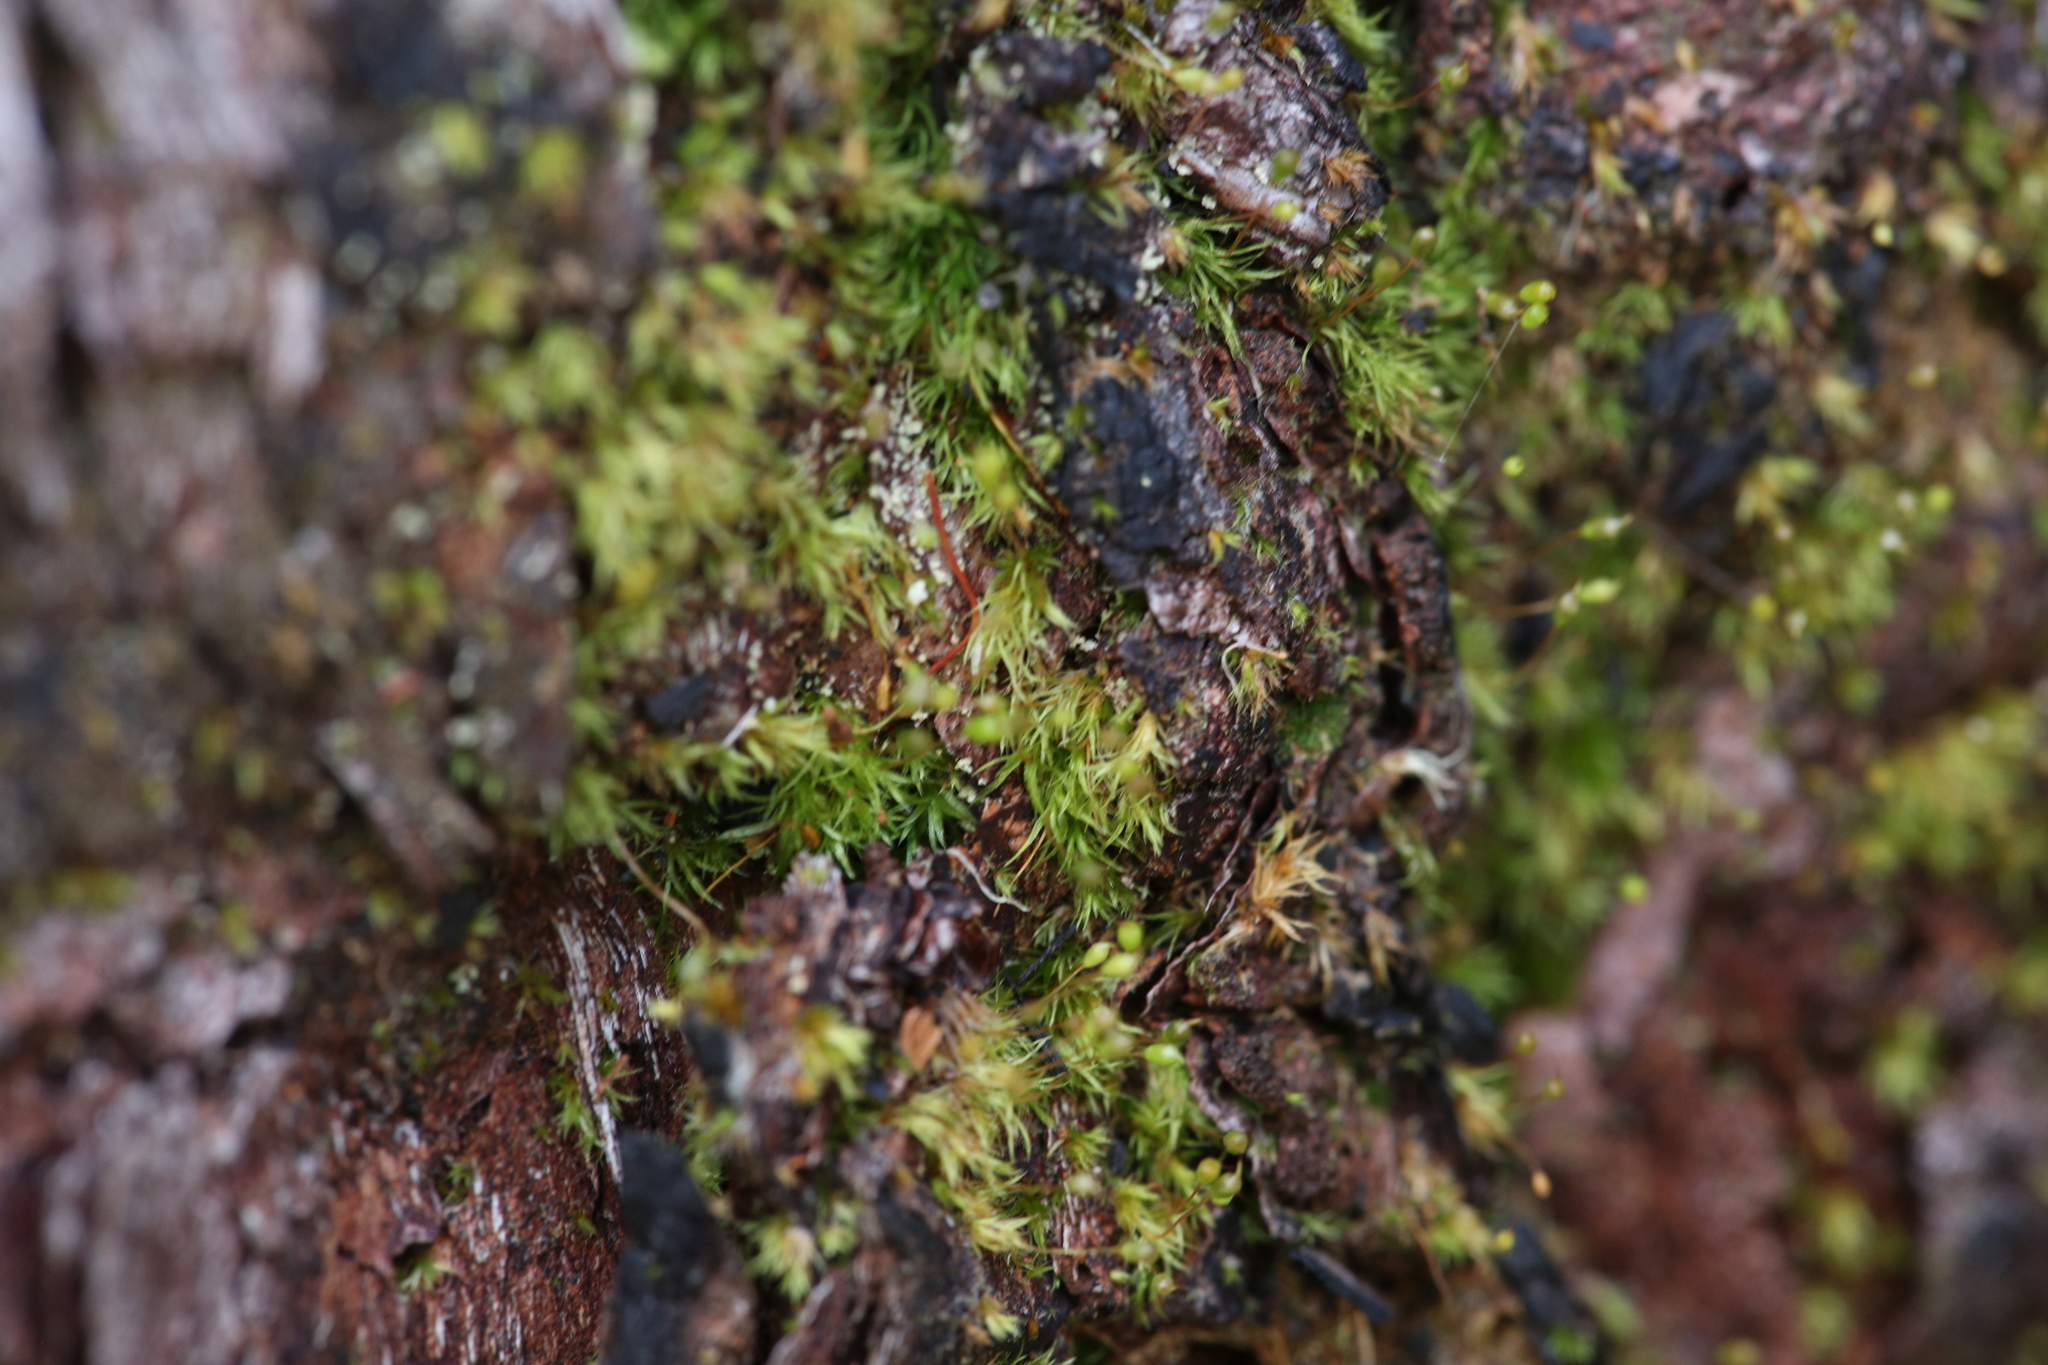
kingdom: Plantae
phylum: Bryophyta
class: Bryopsida
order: Orthodontiales
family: Orthodontiaceae
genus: Orthodontium
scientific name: Orthodontium lineare
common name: Cape thread-moss
